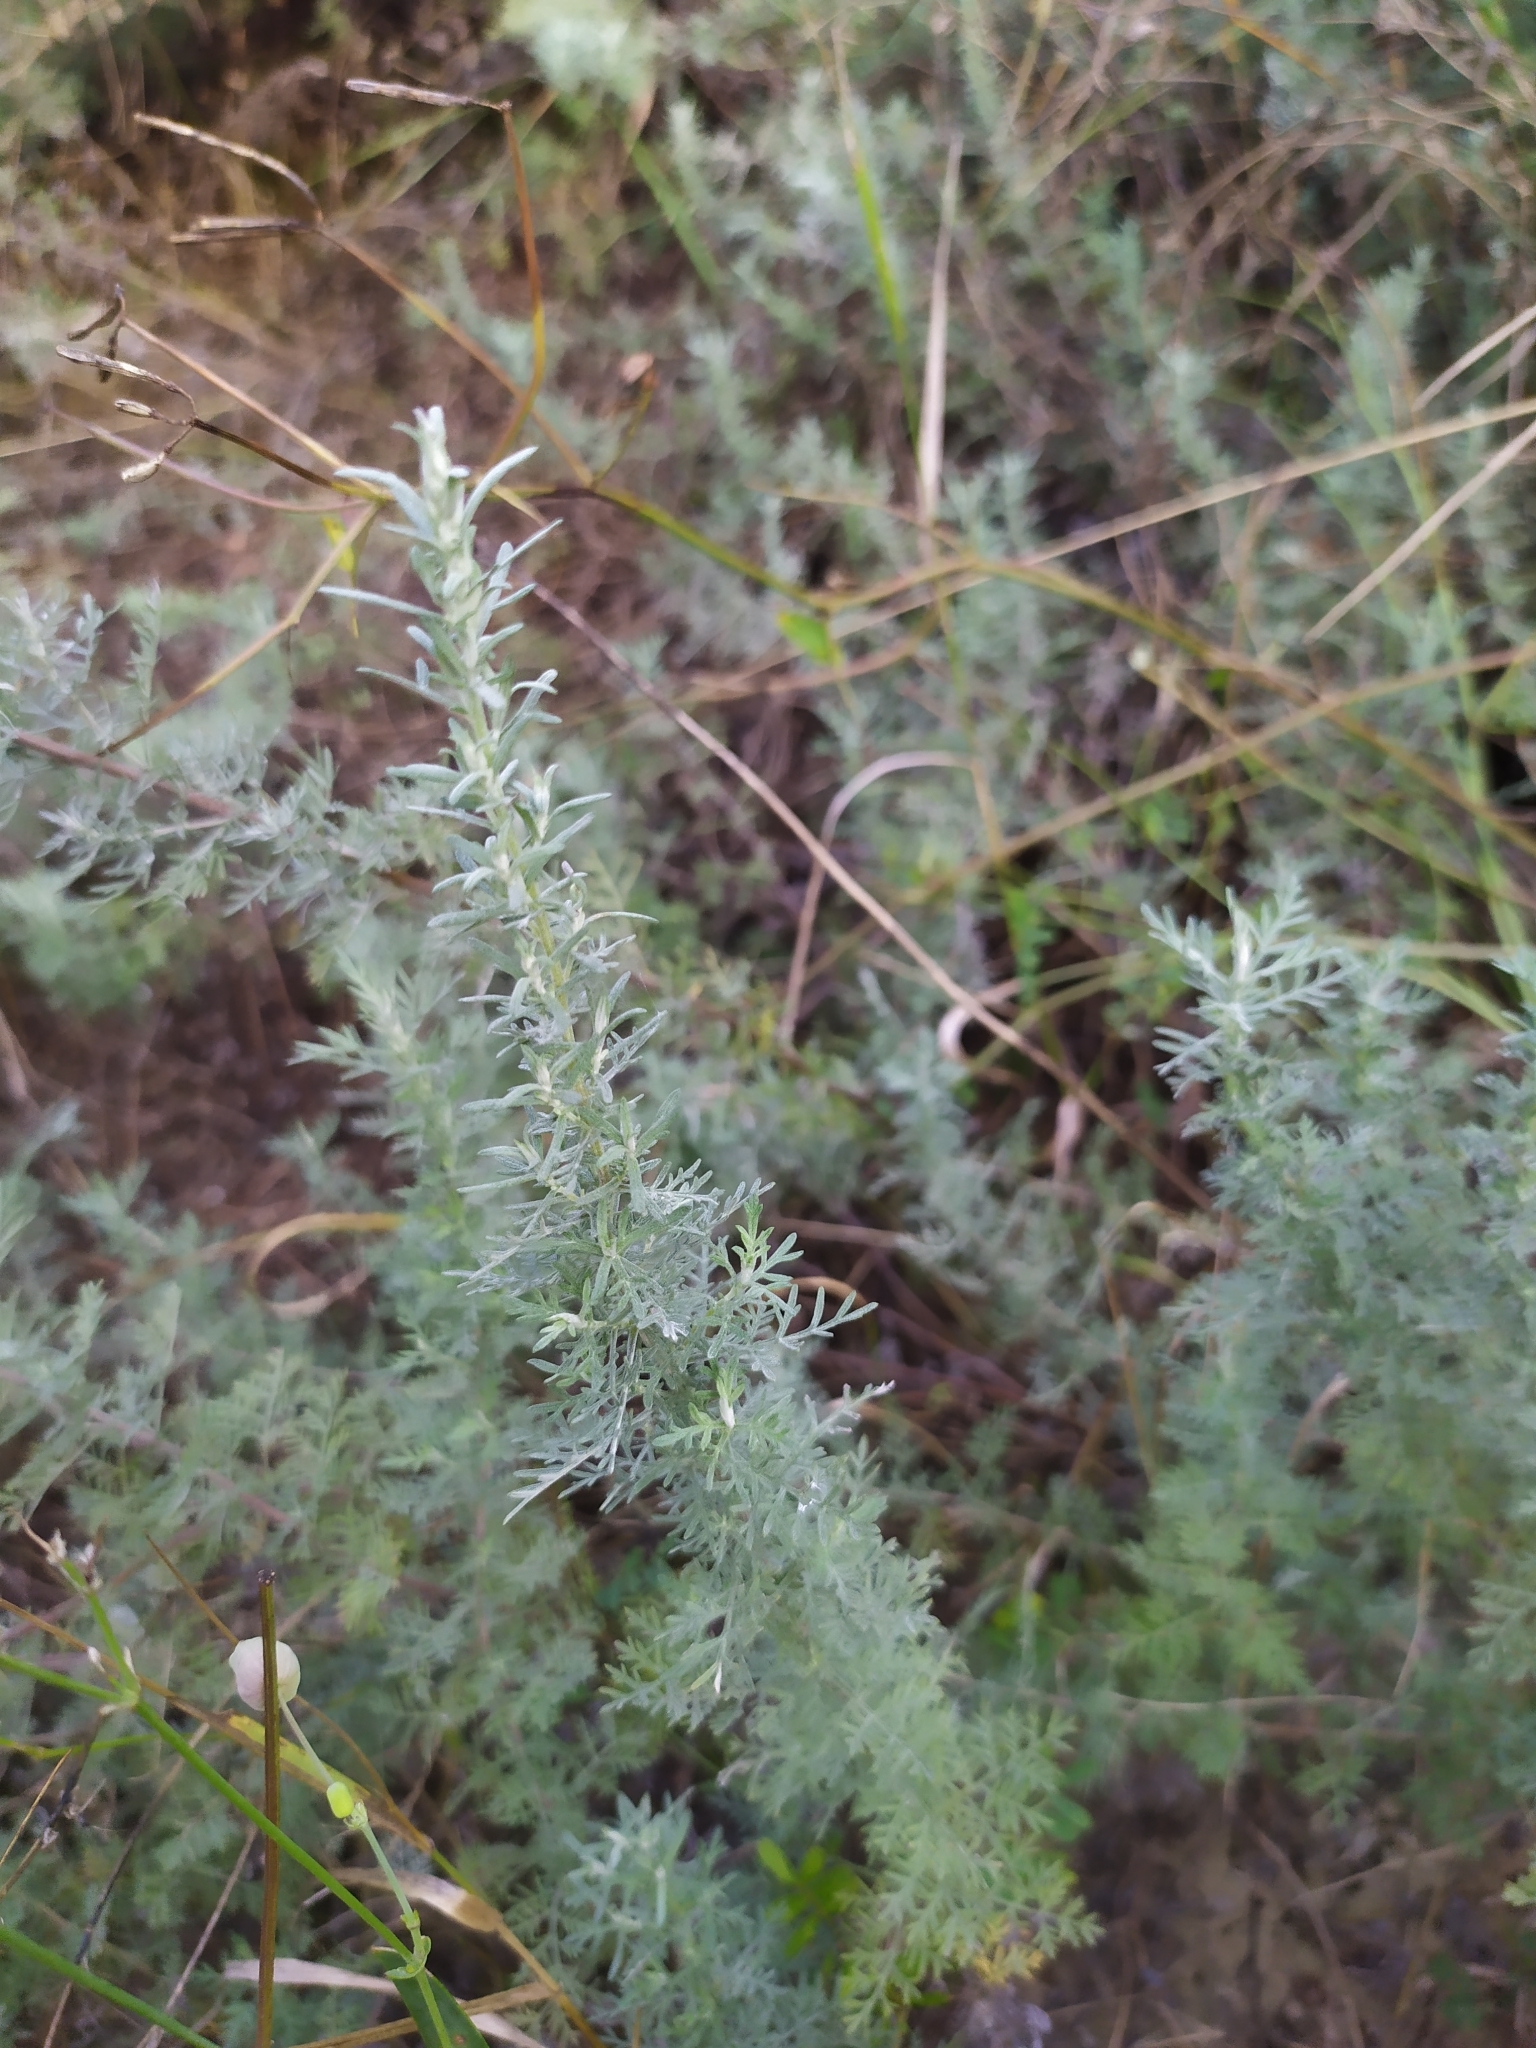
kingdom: Plantae
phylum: Tracheophyta
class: Magnoliopsida
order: Asterales
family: Asteraceae
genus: Artemisia
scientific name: Artemisia pontica
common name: Roman wormwood
